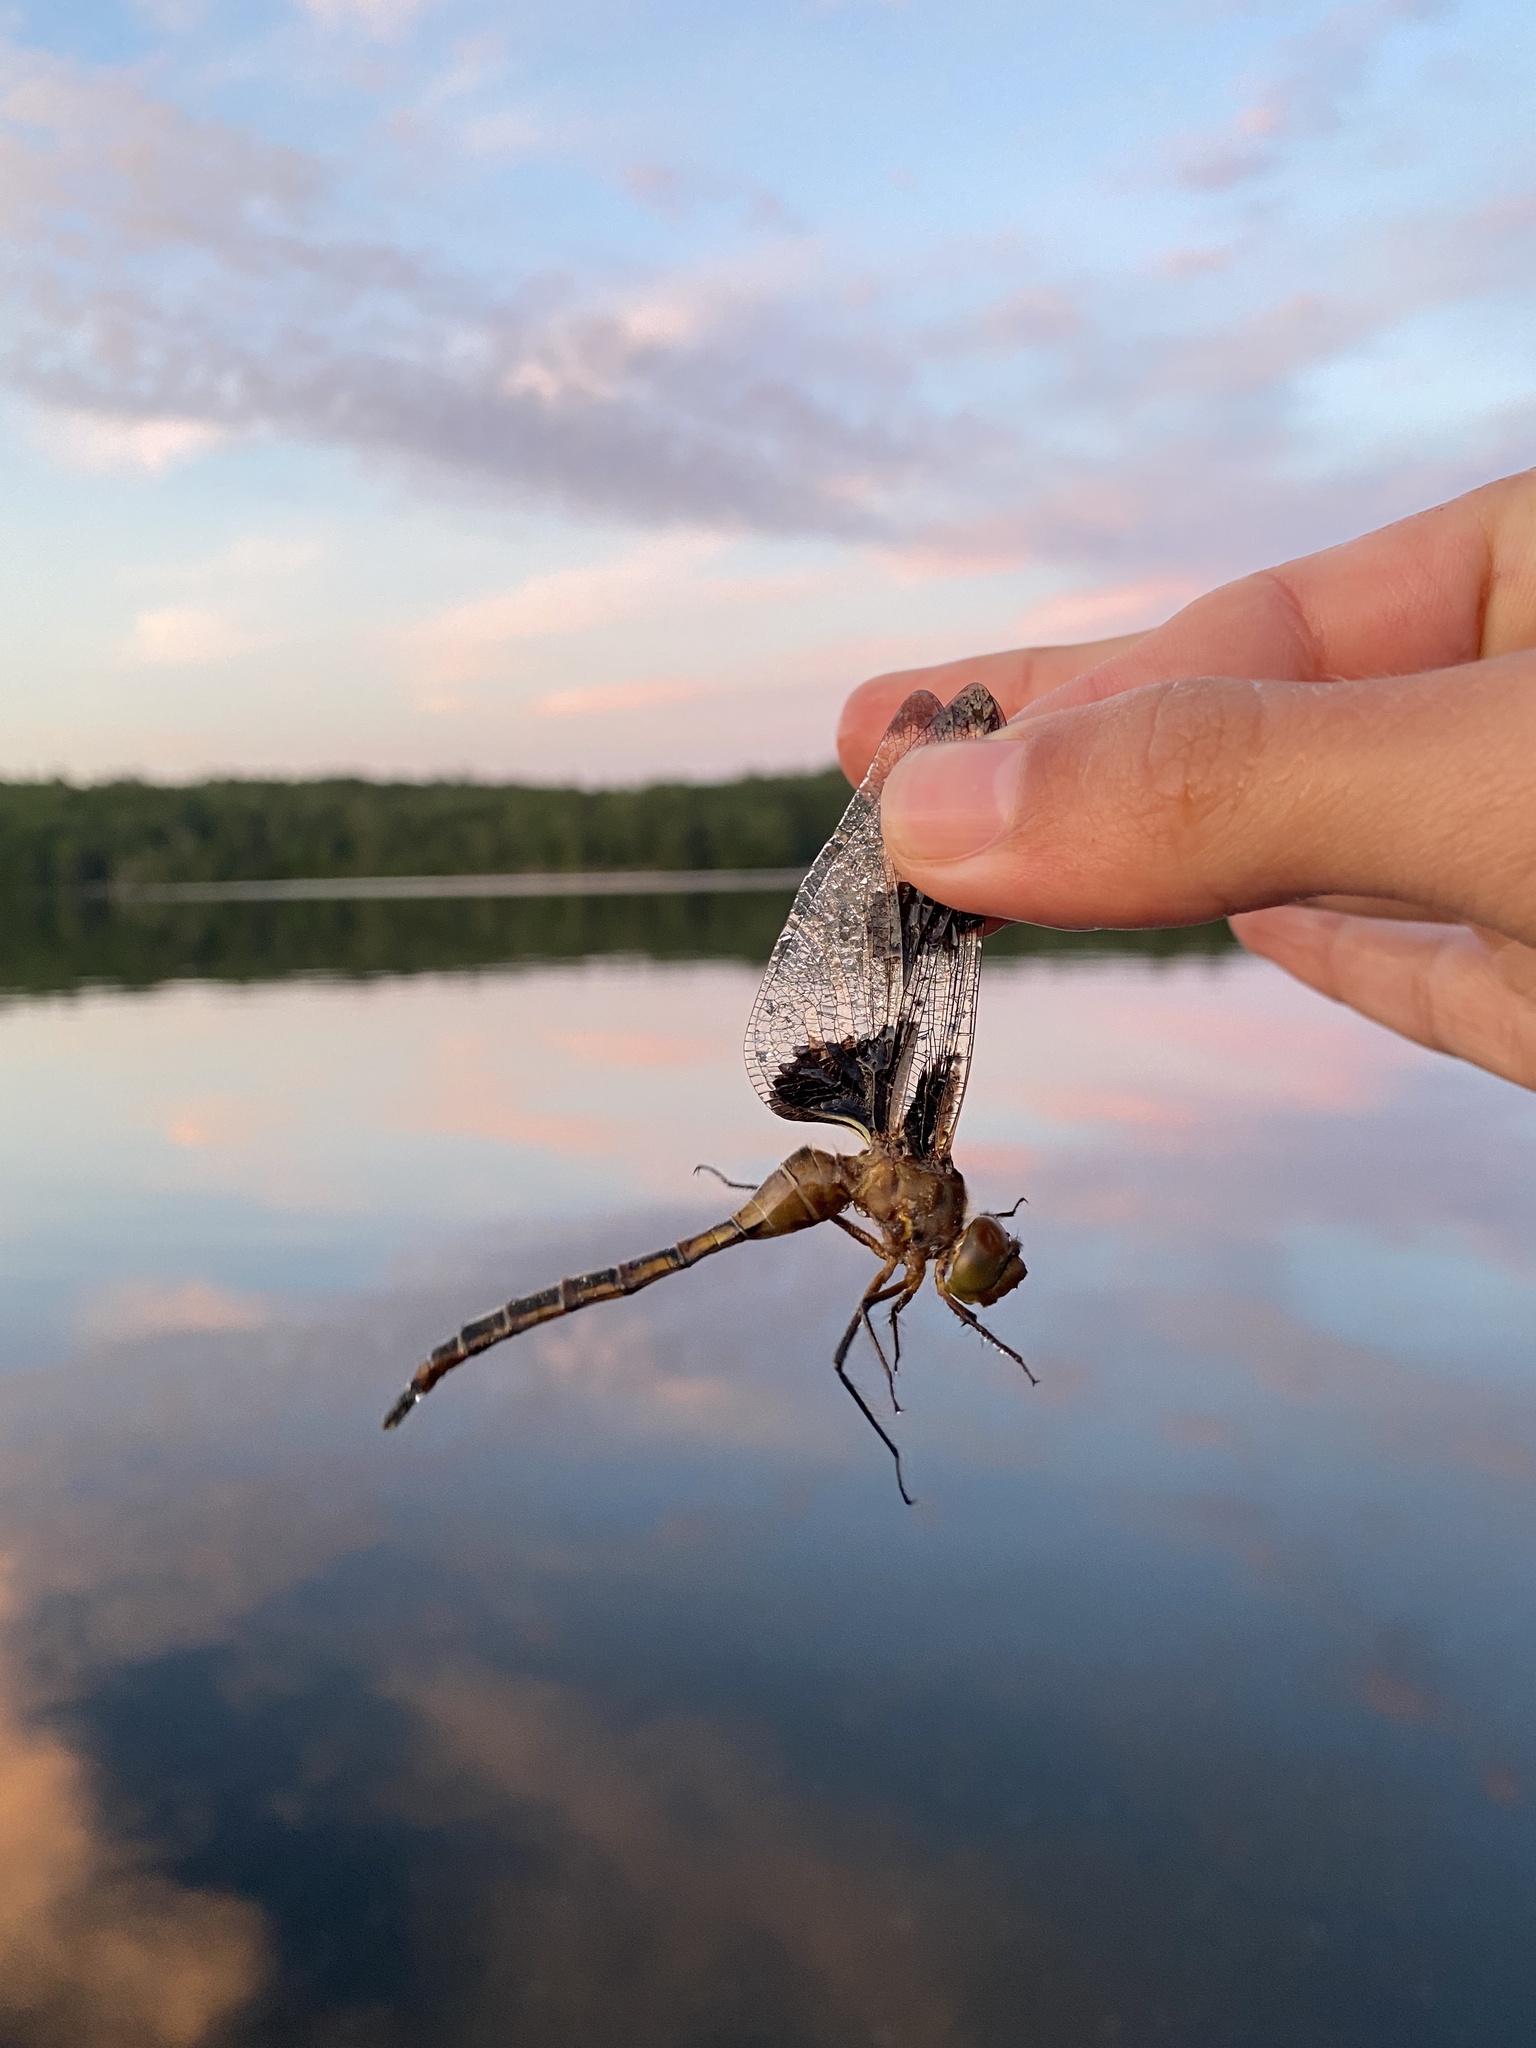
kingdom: Animalia
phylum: Arthropoda
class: Insecta
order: Odonata
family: Corduliidae
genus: Epitheca
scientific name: Epitheca princeps
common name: Prince baskettail
